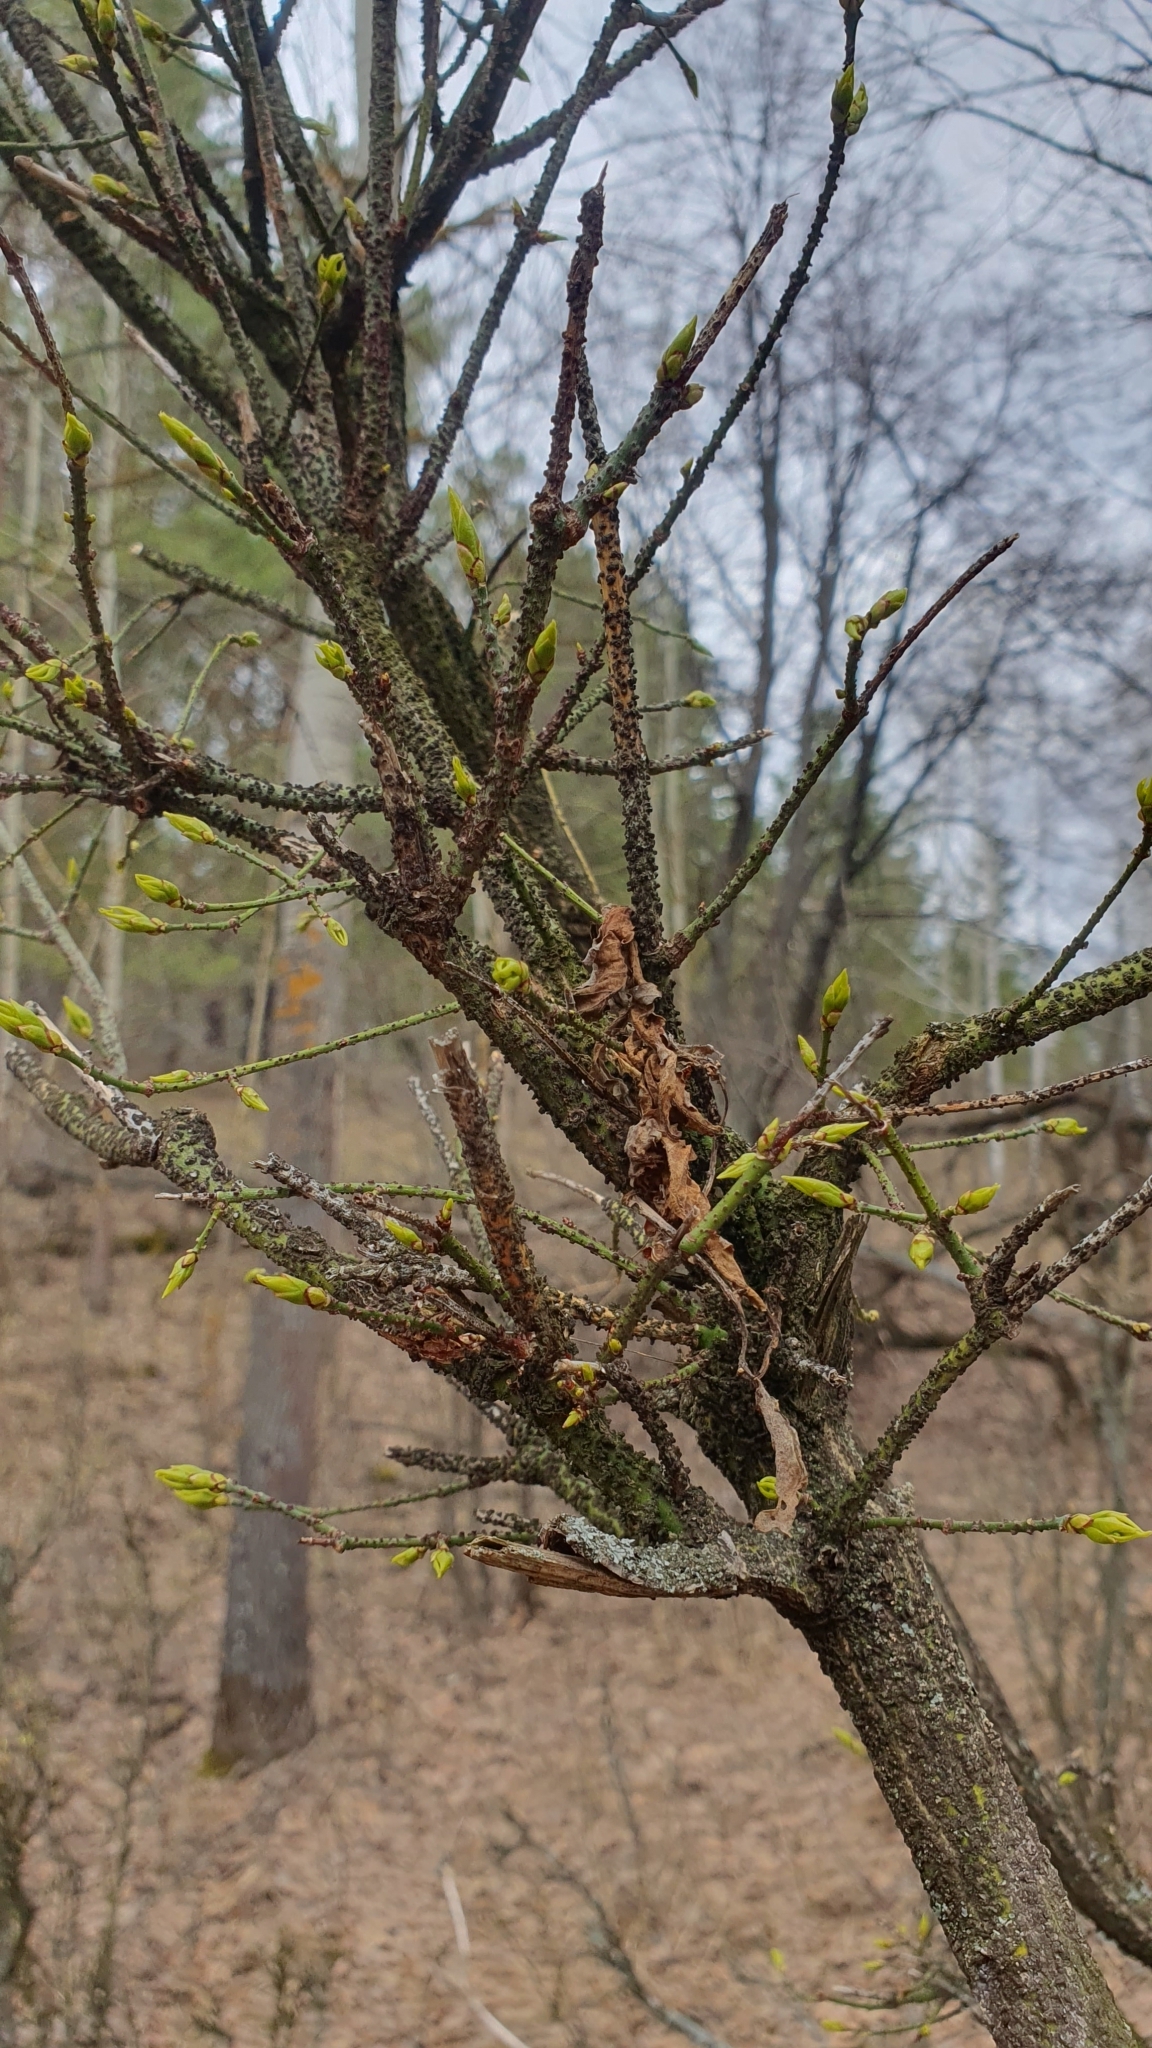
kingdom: Plantae
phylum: Tracheophyta
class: Magnoliopsida
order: Celastrales
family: Celastraceae
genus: Euonymus
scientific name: Euonymus verrucosus
